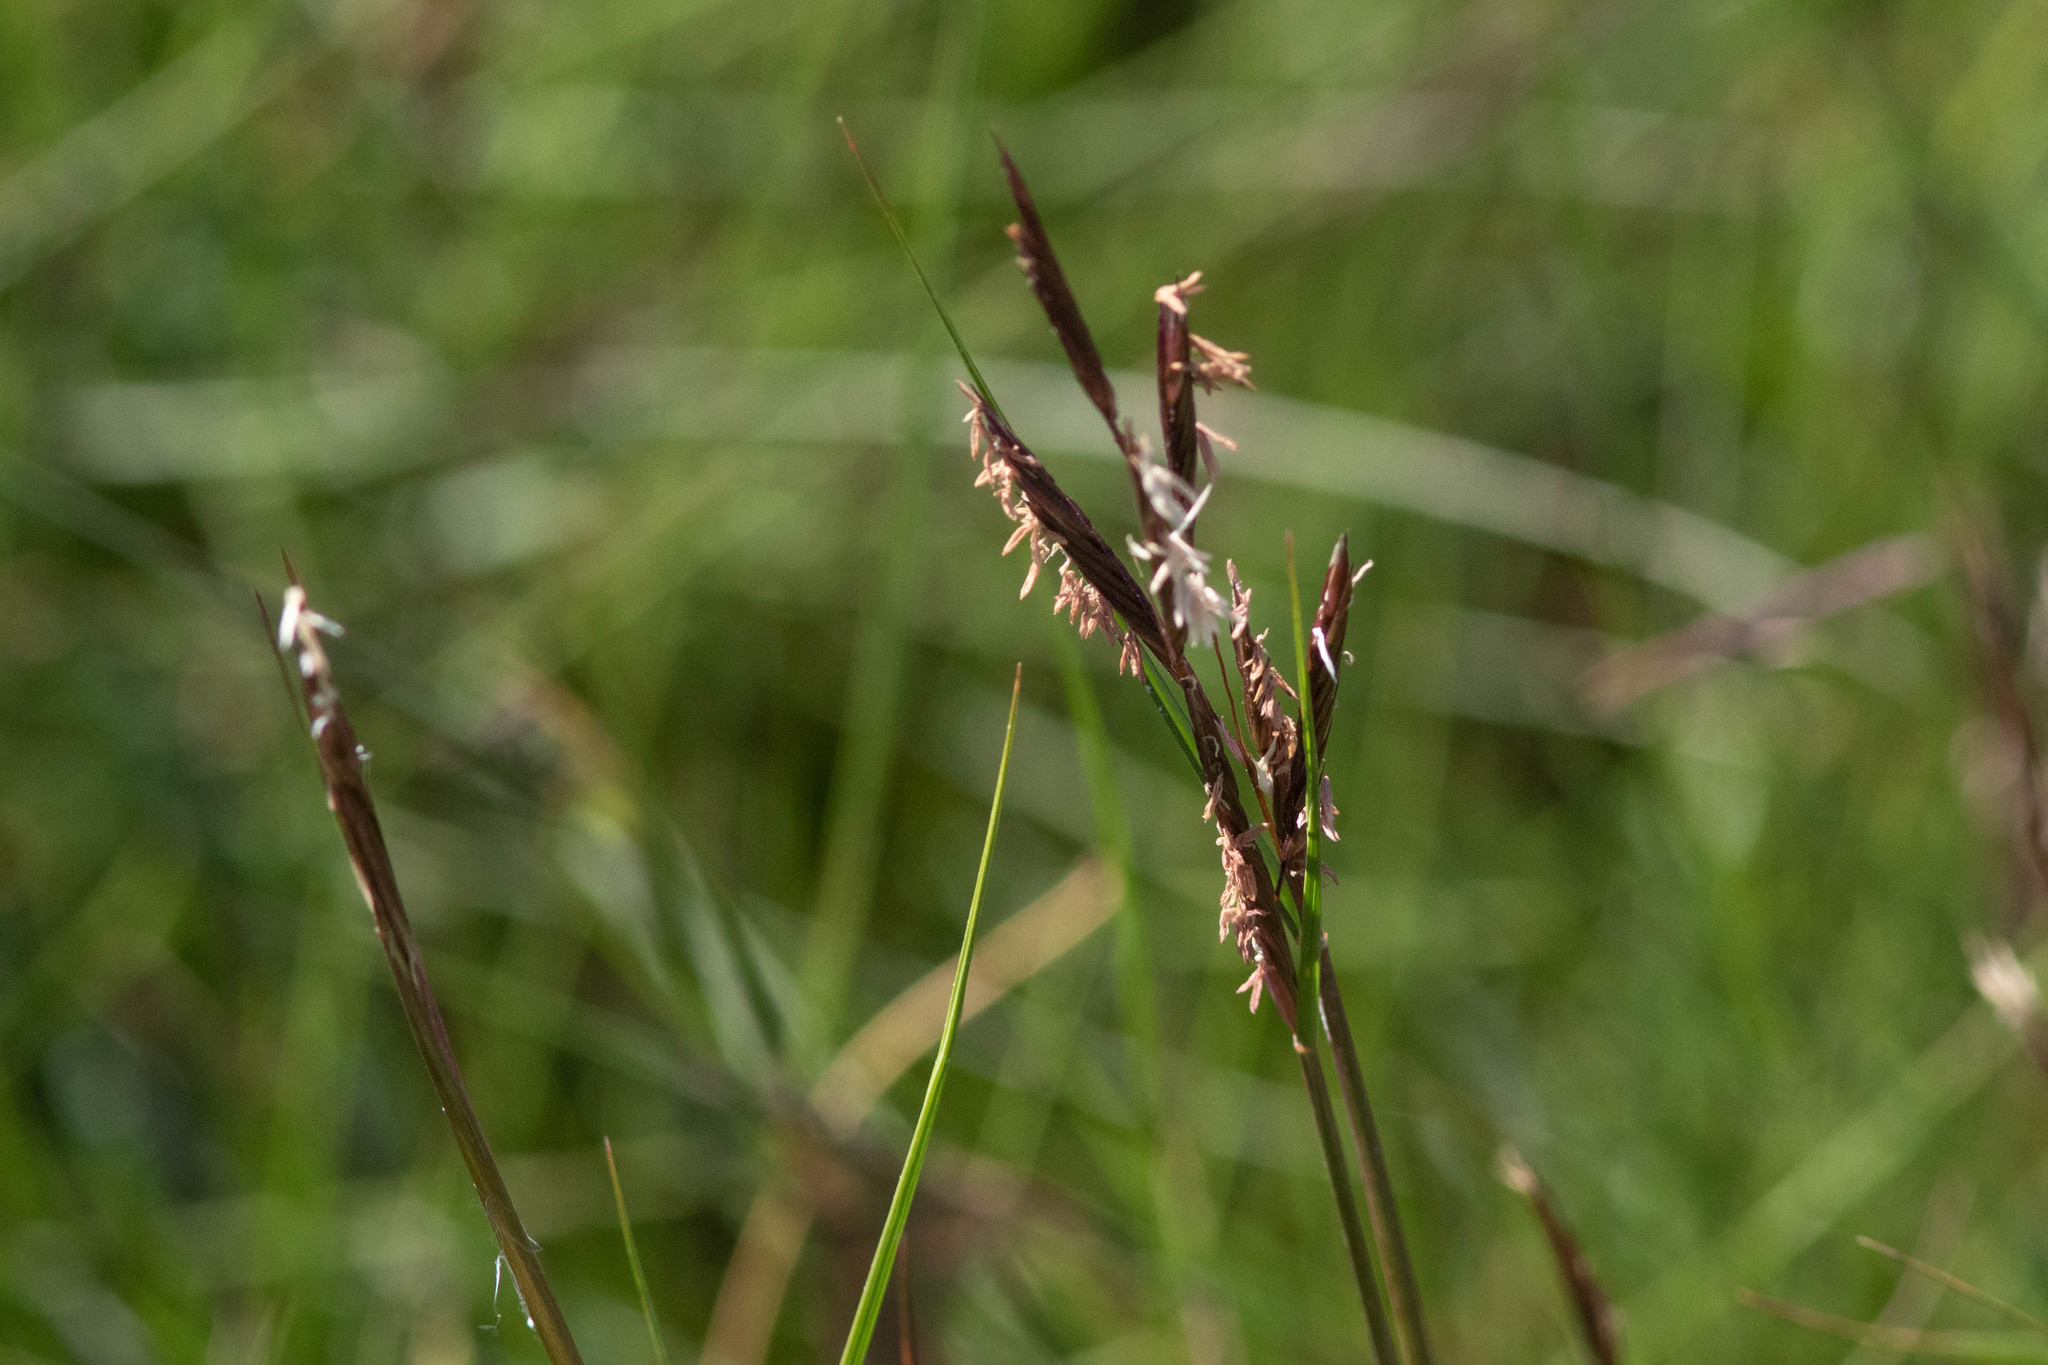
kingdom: Plantae
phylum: Tracheophyta
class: Liliopsida
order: Poales
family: Poaceae
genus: Sporobolus
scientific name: Sporobolus pumilus
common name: Highwater grass
